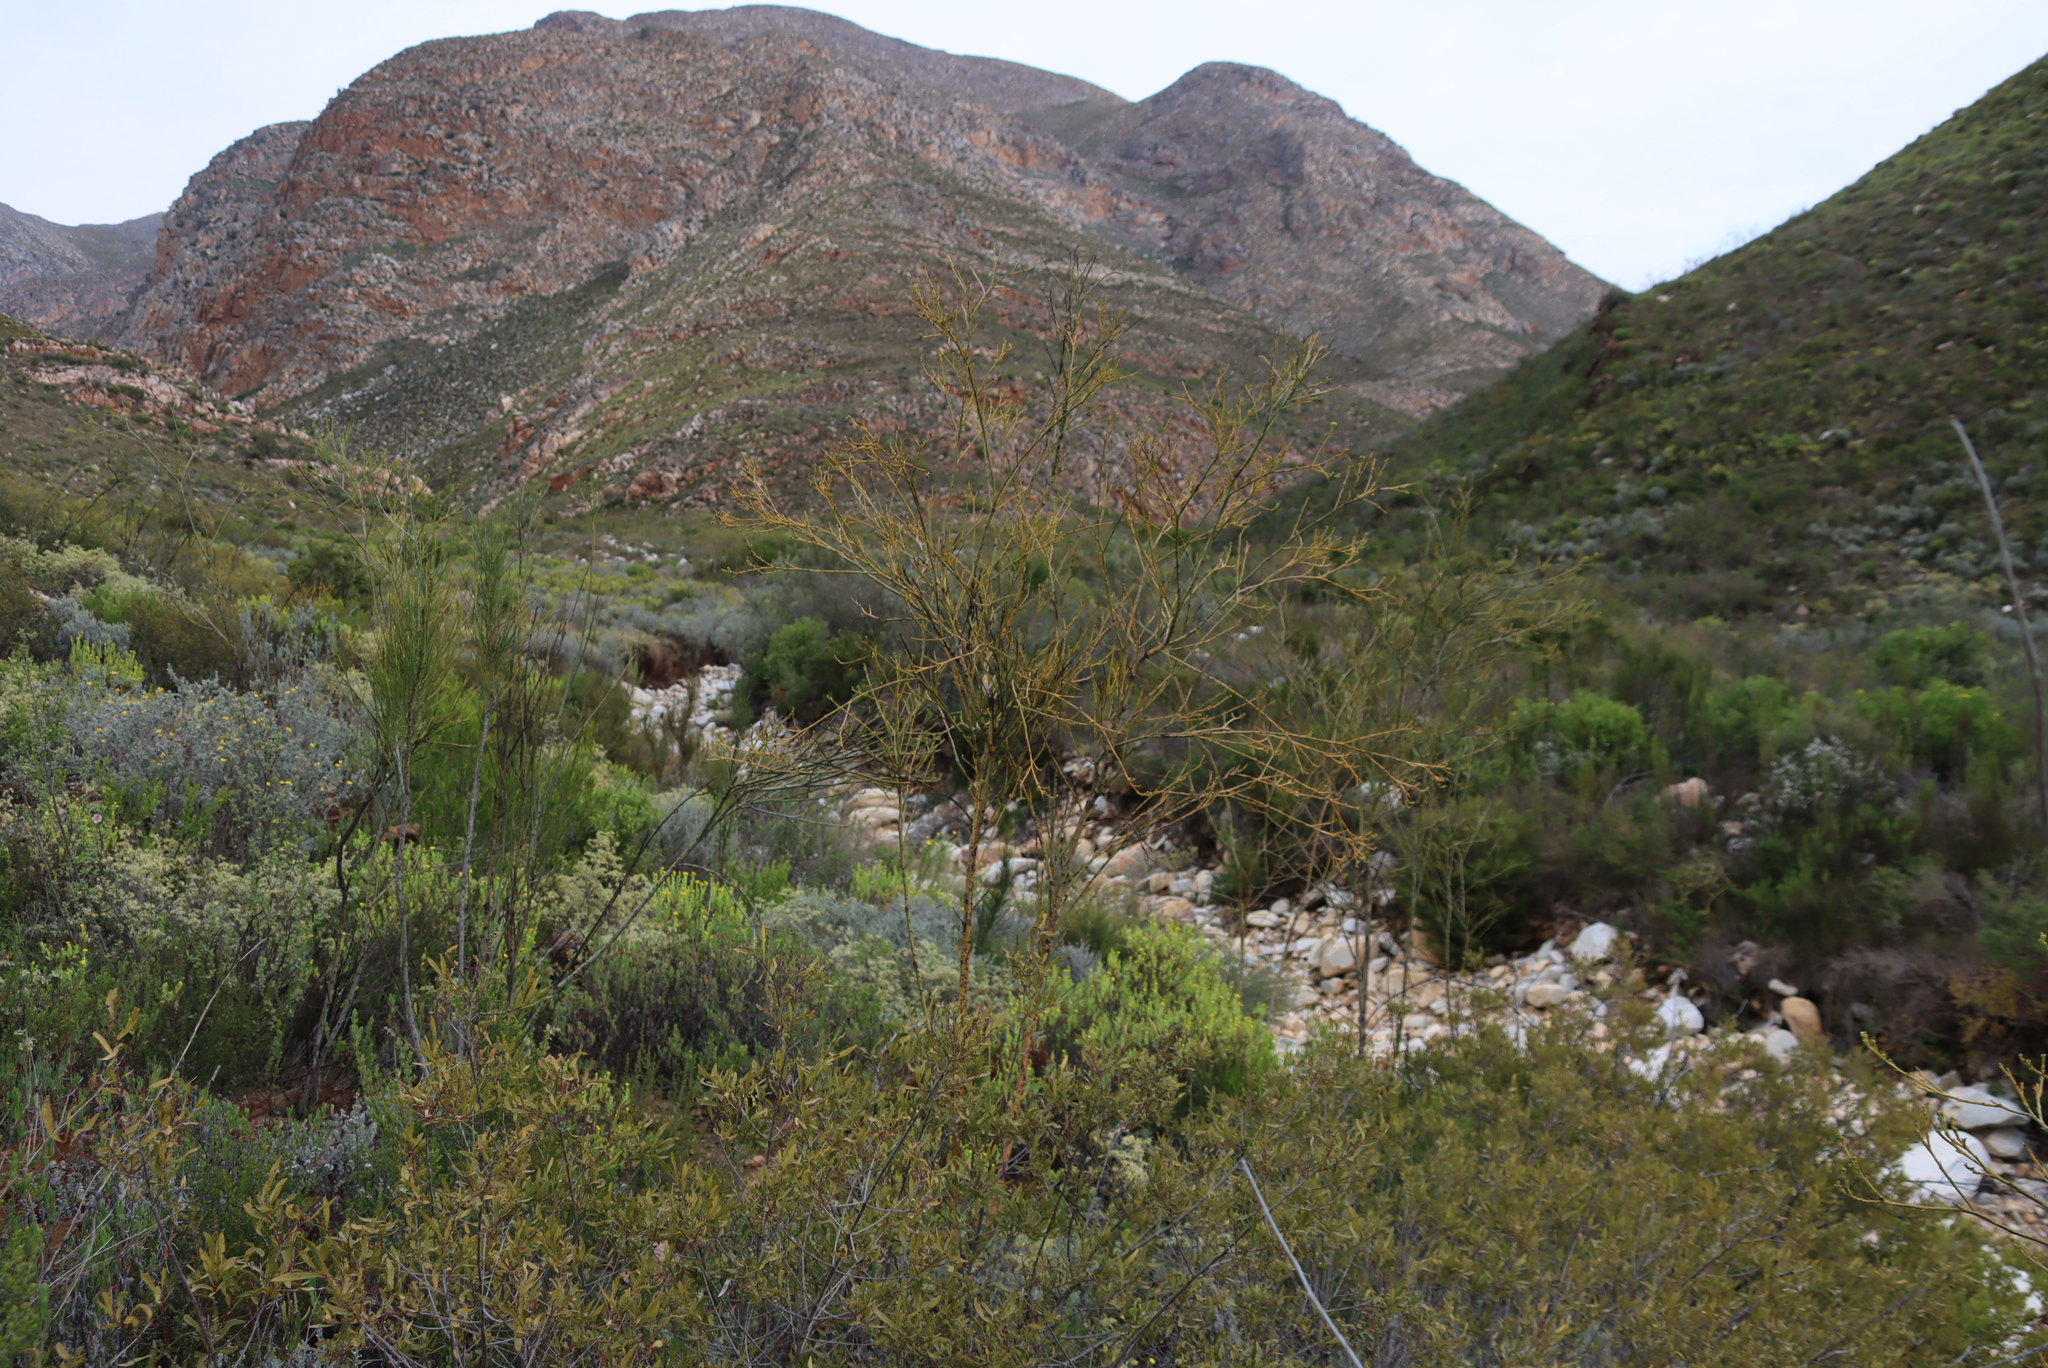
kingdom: Plantae
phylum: Tracheophyta
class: Magnoliopsida
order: Santalales
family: Thesiaceae
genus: Thesium
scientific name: Thesium strictum
